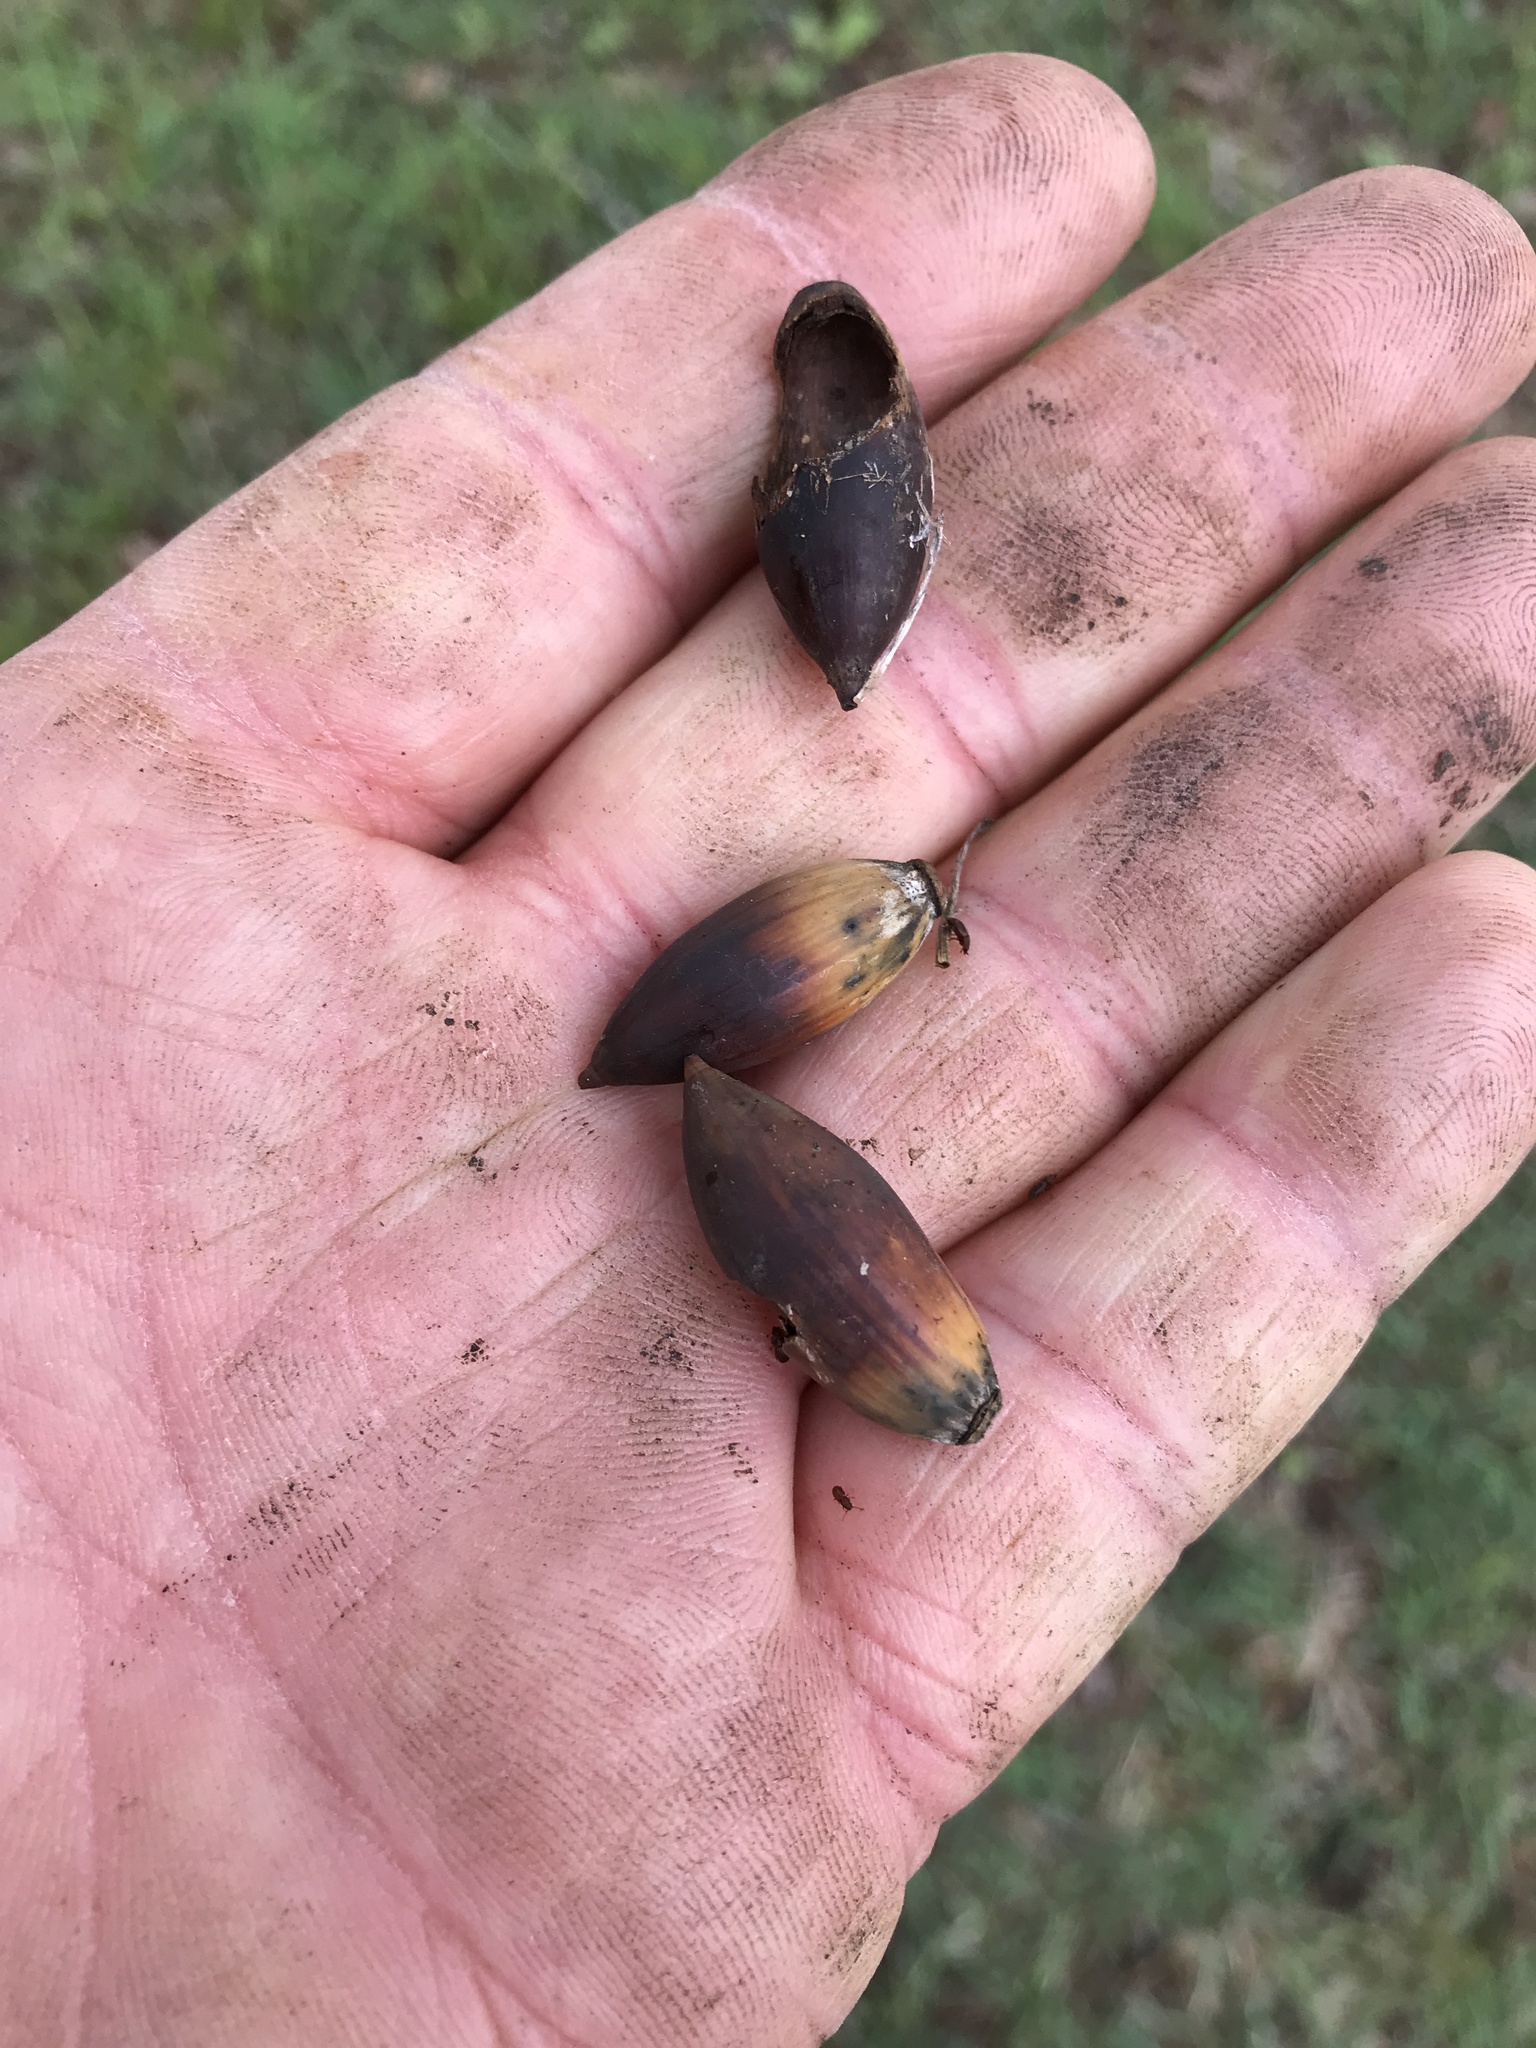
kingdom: Plantae
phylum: Tracheophyta
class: Magnoliopsida
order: Fagales
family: Fagaceae
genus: Quercus
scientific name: Quercus fusiformis
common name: Texas live oak
